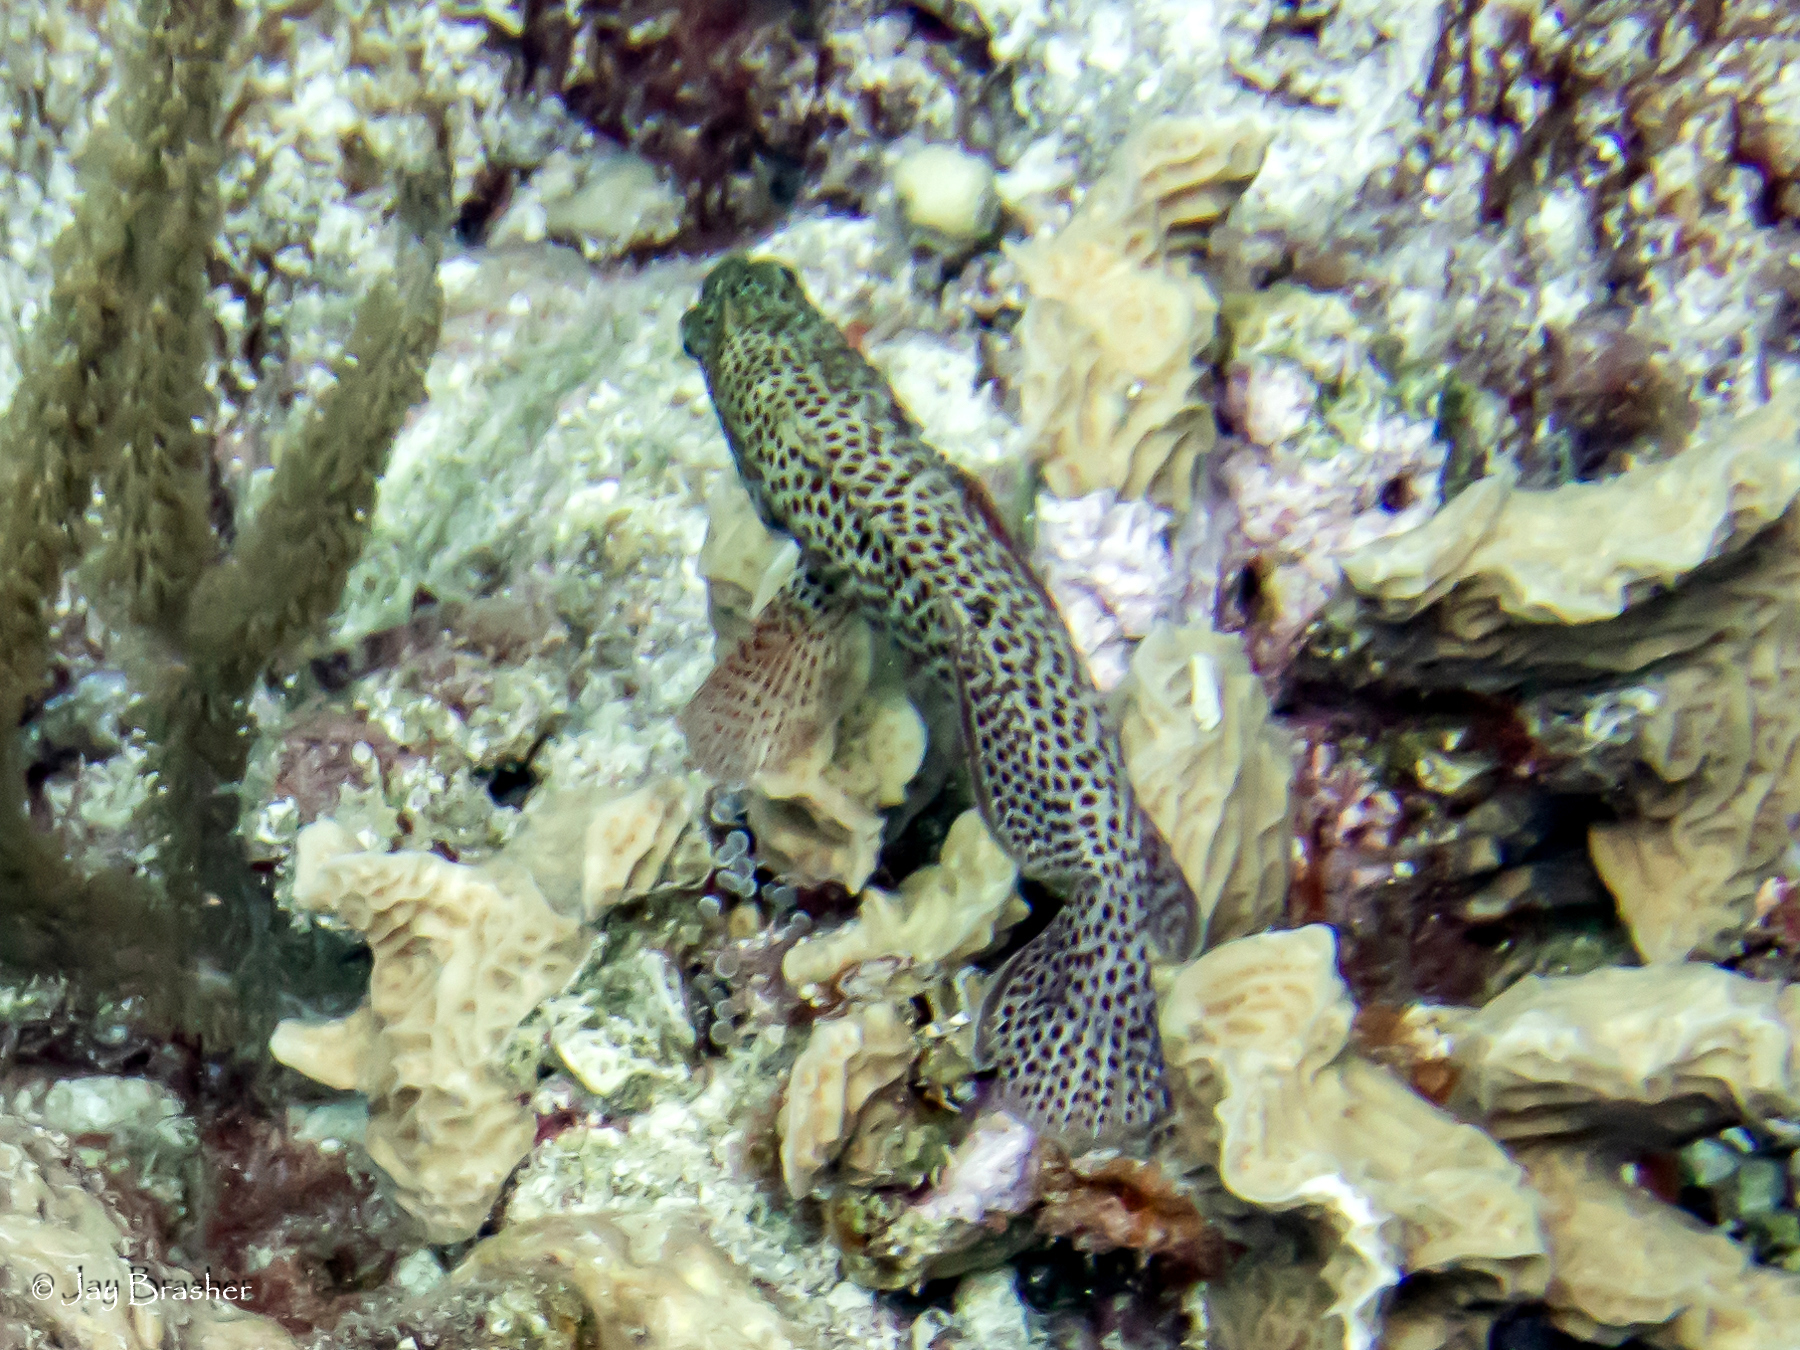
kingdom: Animalia
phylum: Chordata
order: Perciformes
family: Serranidae
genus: Cephalopholis
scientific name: Cephalopholis cruentata
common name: Graysby
